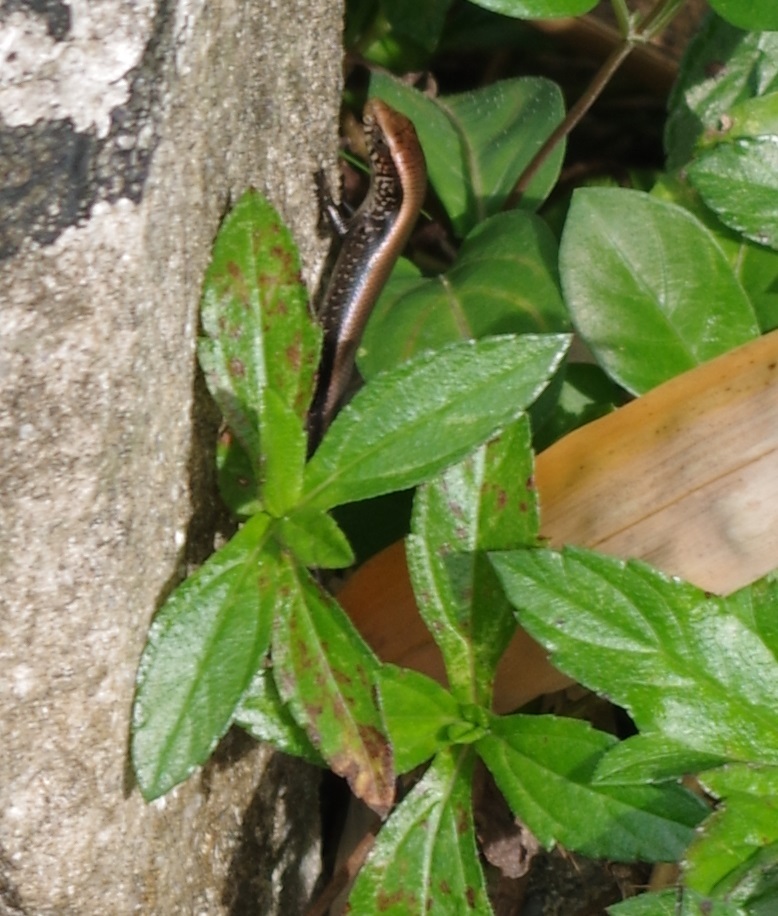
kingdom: Animalia
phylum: Chordata
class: Squamata
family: Scincidae
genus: Eutropis
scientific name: Eutropis multifasciata
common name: Common mabuya
